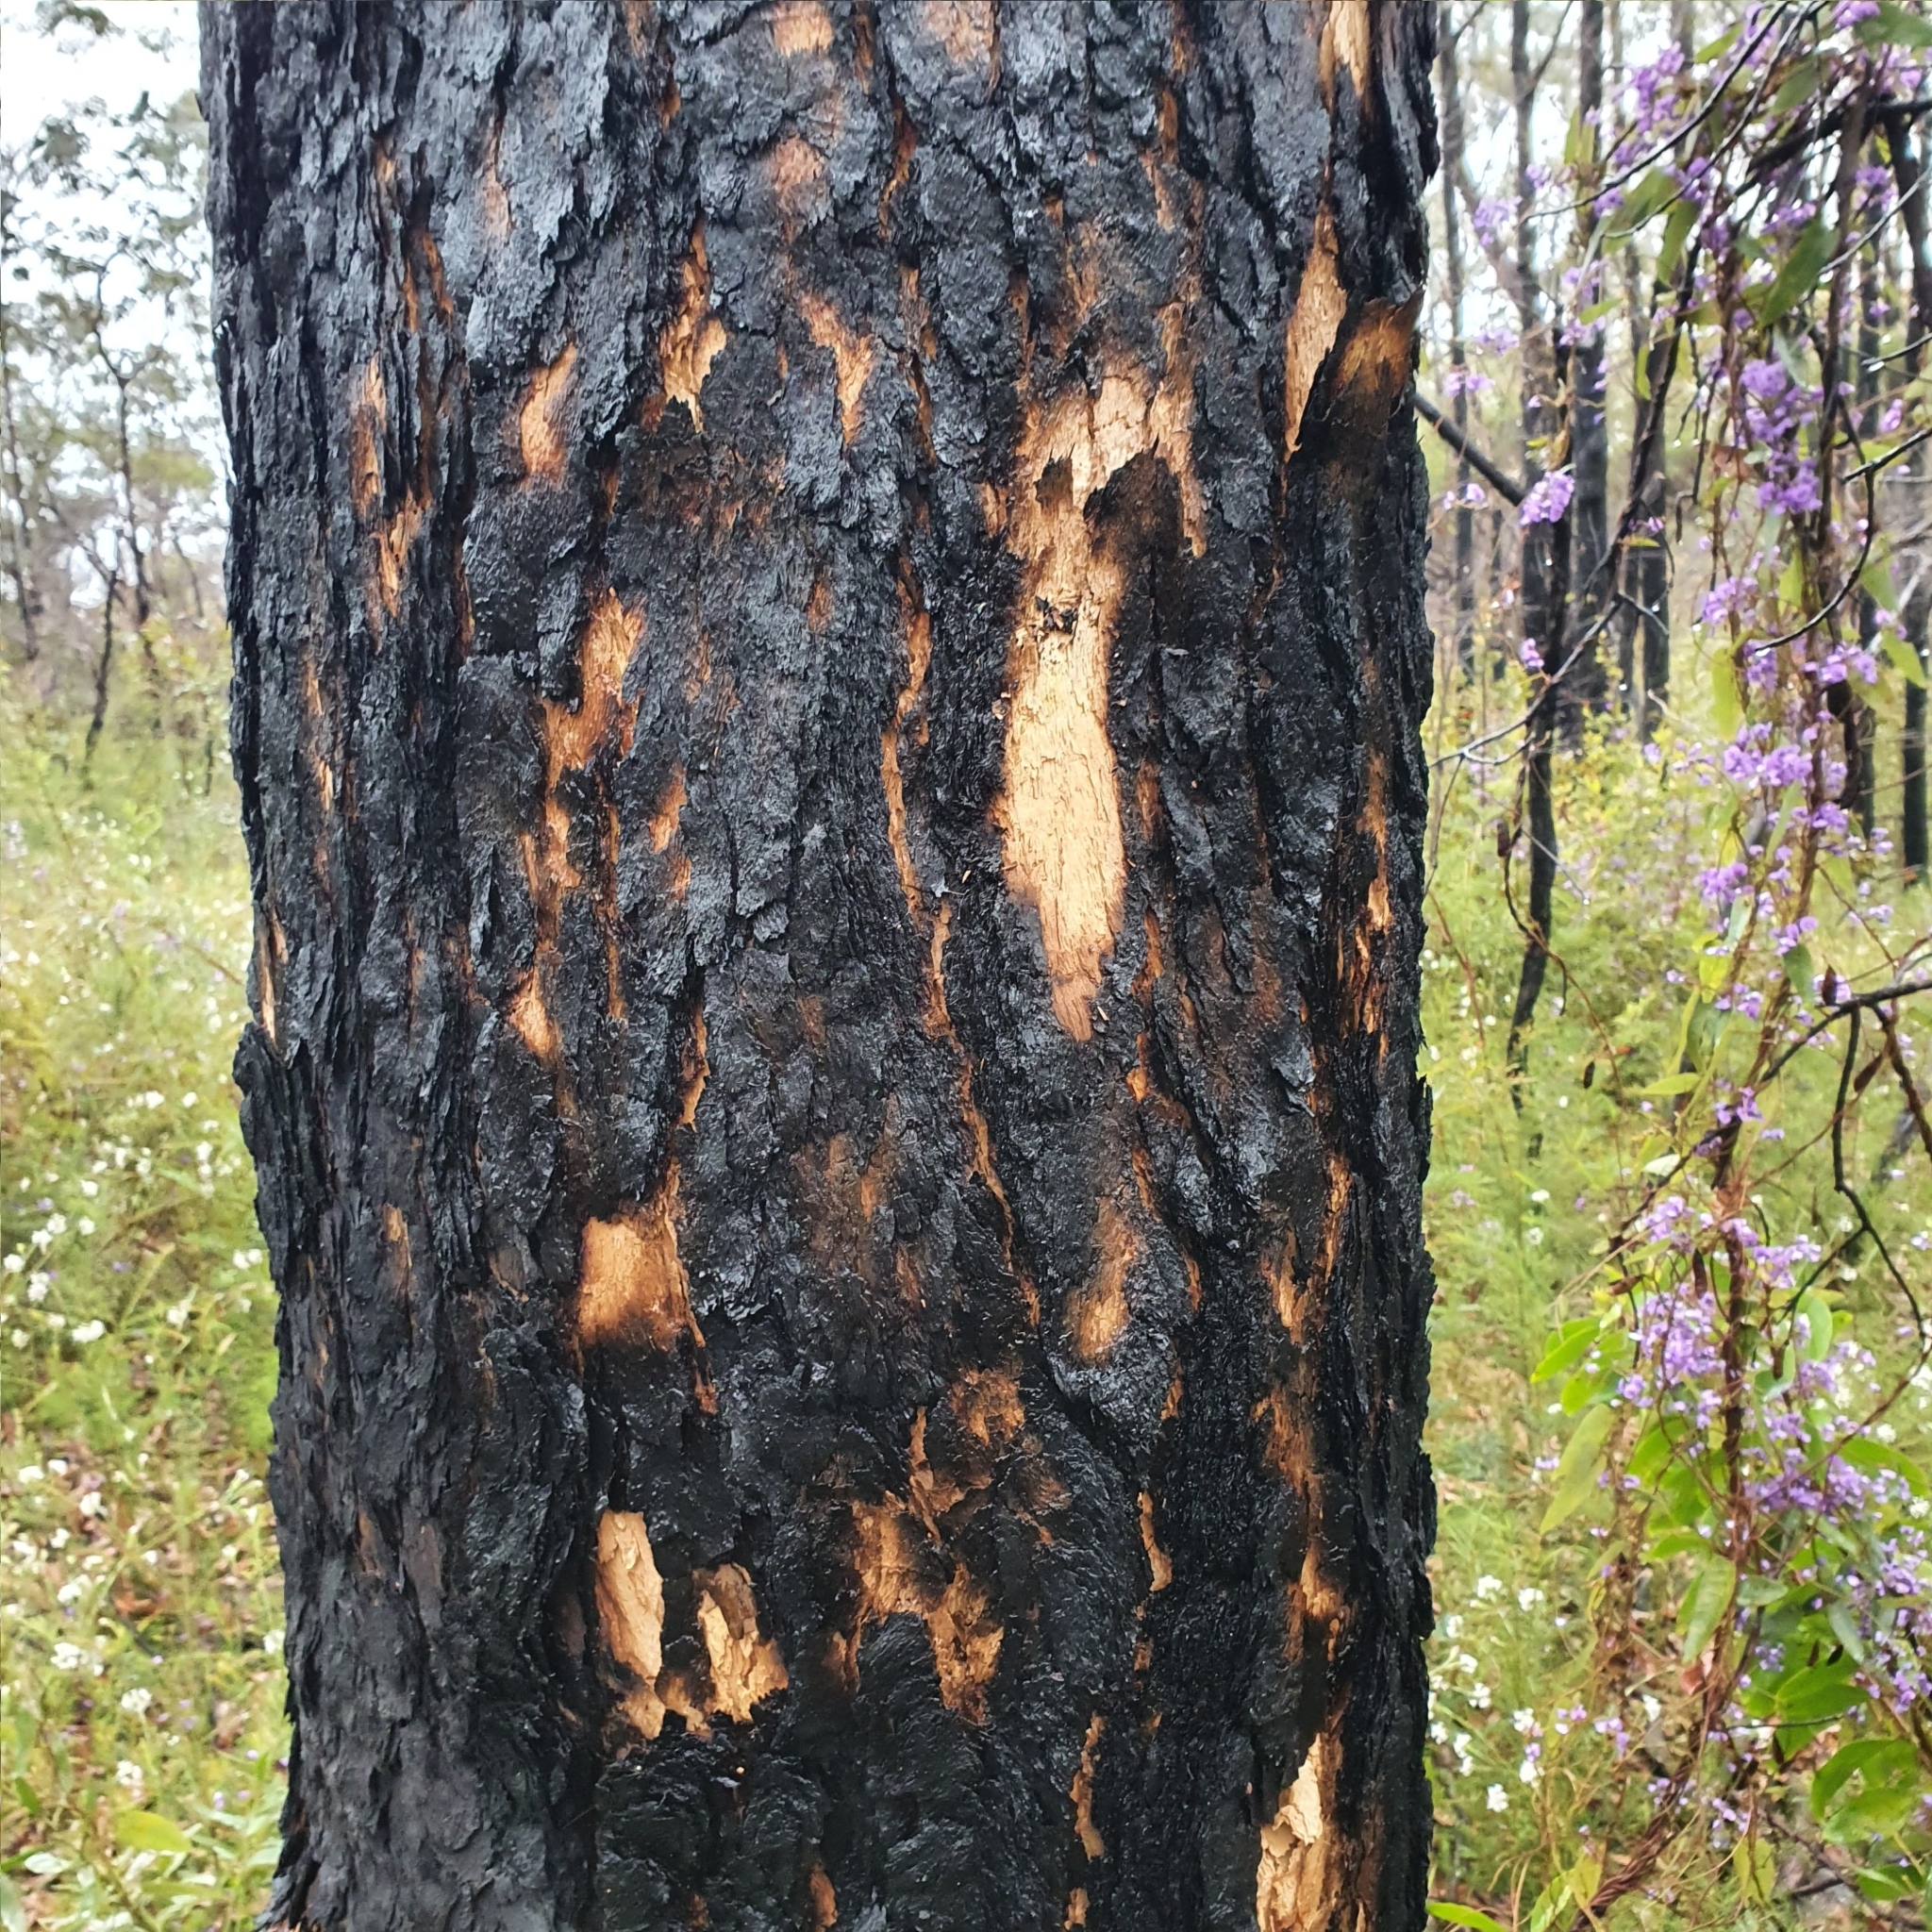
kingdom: Plantae
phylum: Tracheophyta
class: Magnoliopsida
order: Myrtales
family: Myrtaceae
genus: Corymbia
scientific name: Corymbia eximia
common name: Yellow bloodwood
